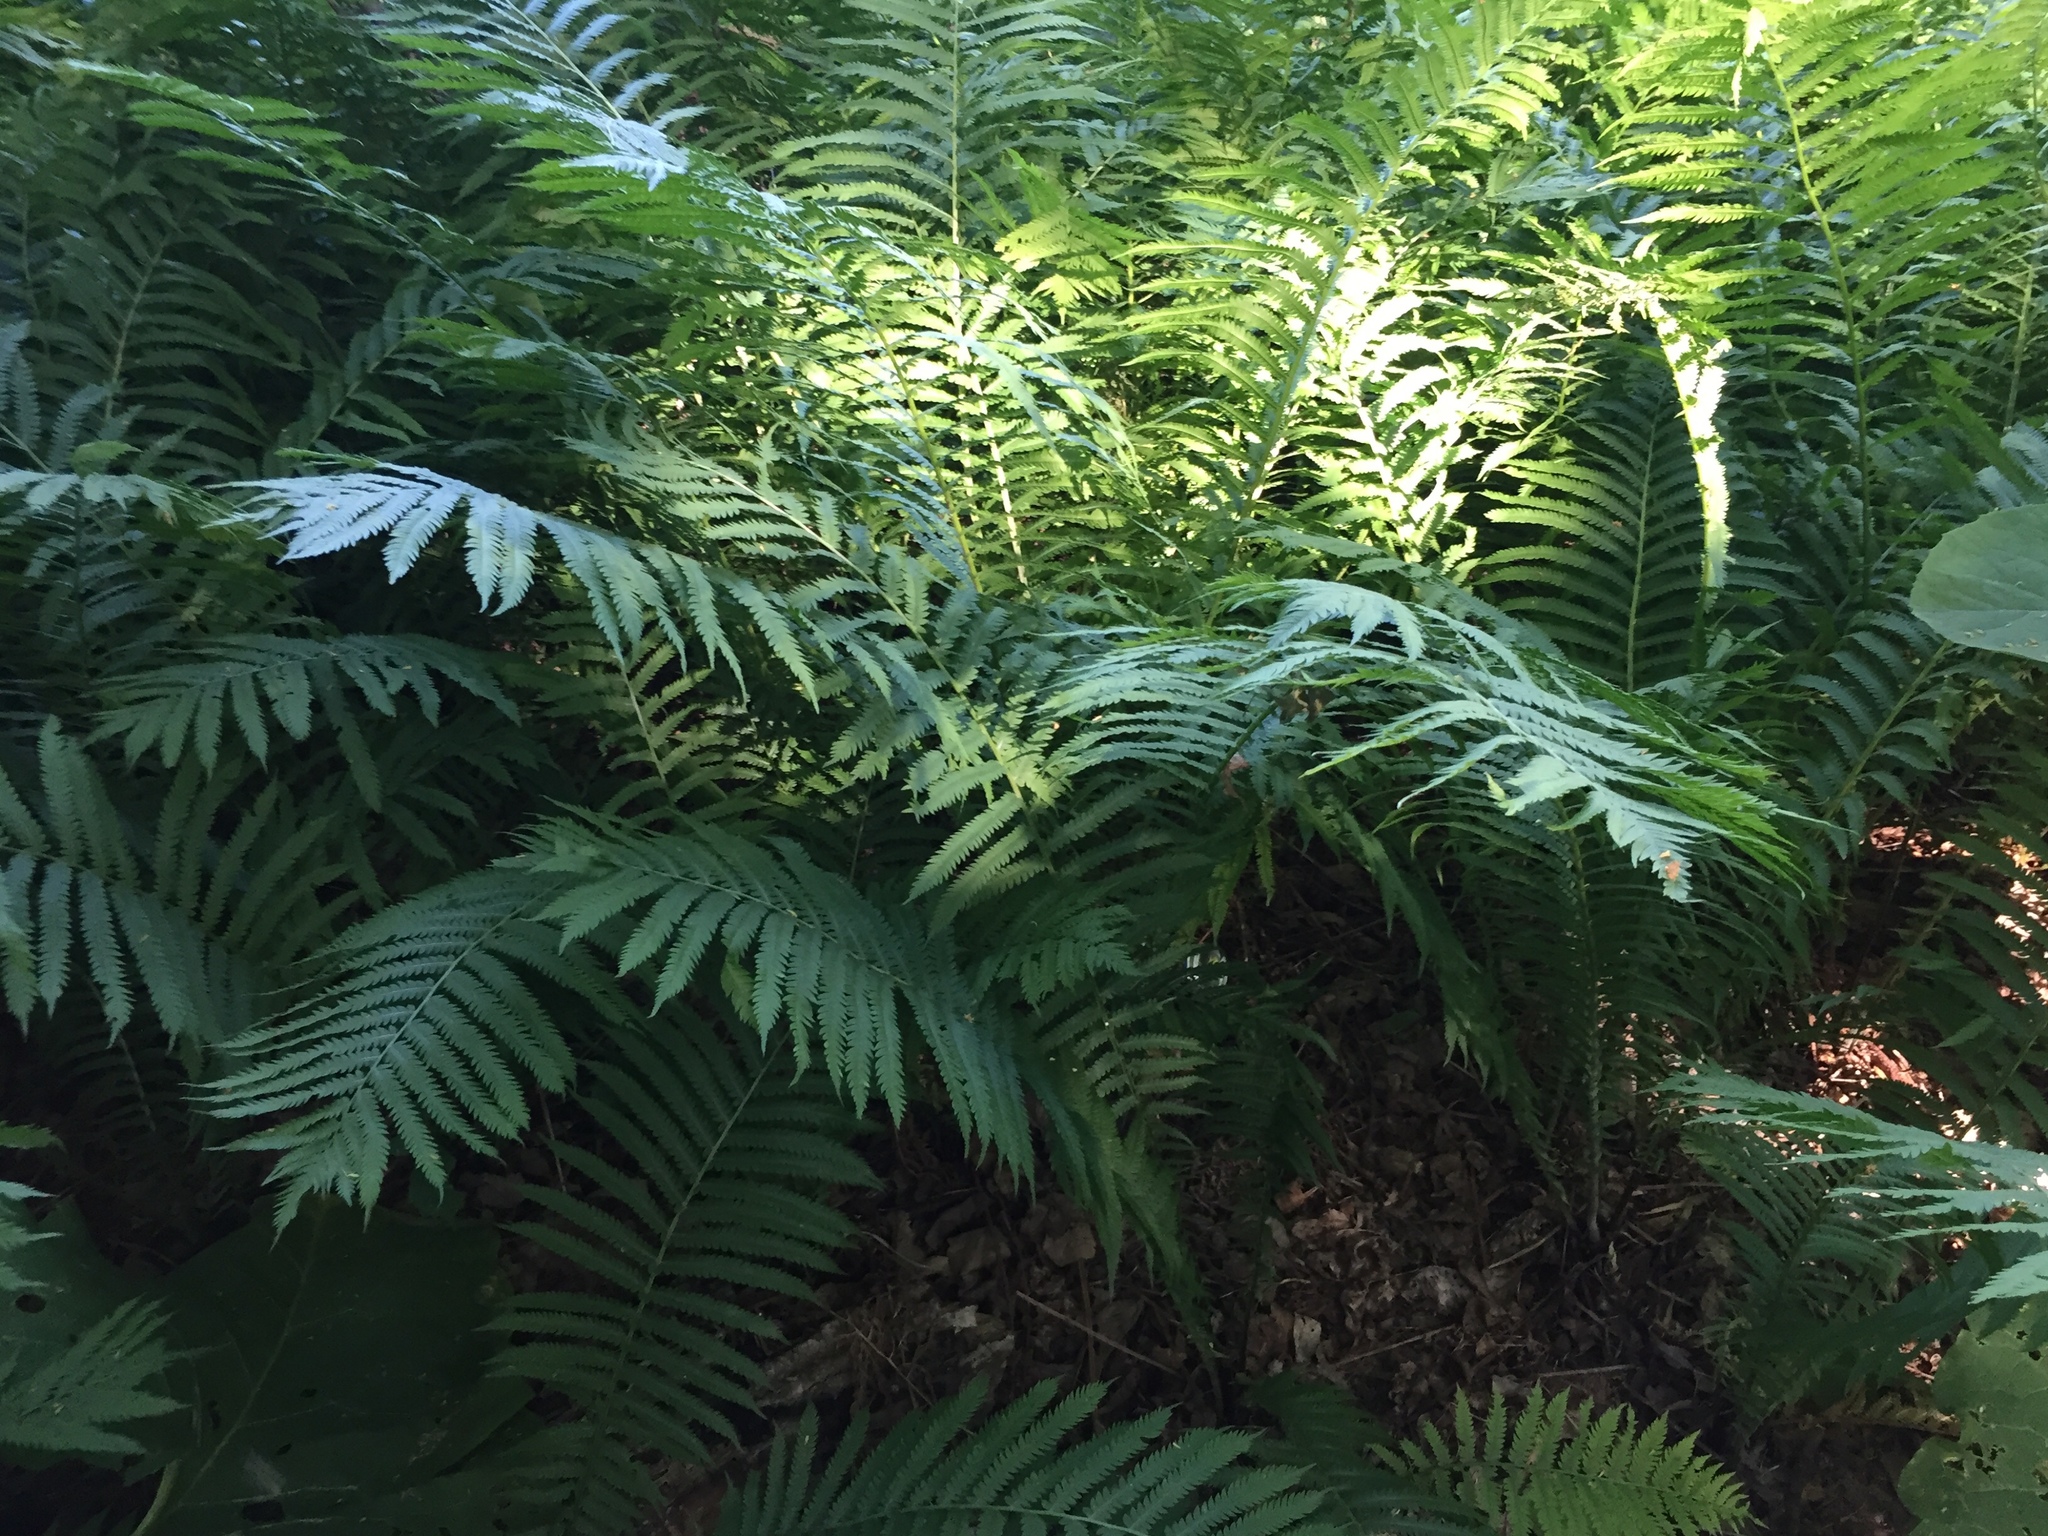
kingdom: Plantae
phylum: Tracheophyta
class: Polypodiopsida
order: Polypodiales
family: Onocleaceae
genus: Matteuccia
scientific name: Matteuccia struthiopteris
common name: Ostrich fern
